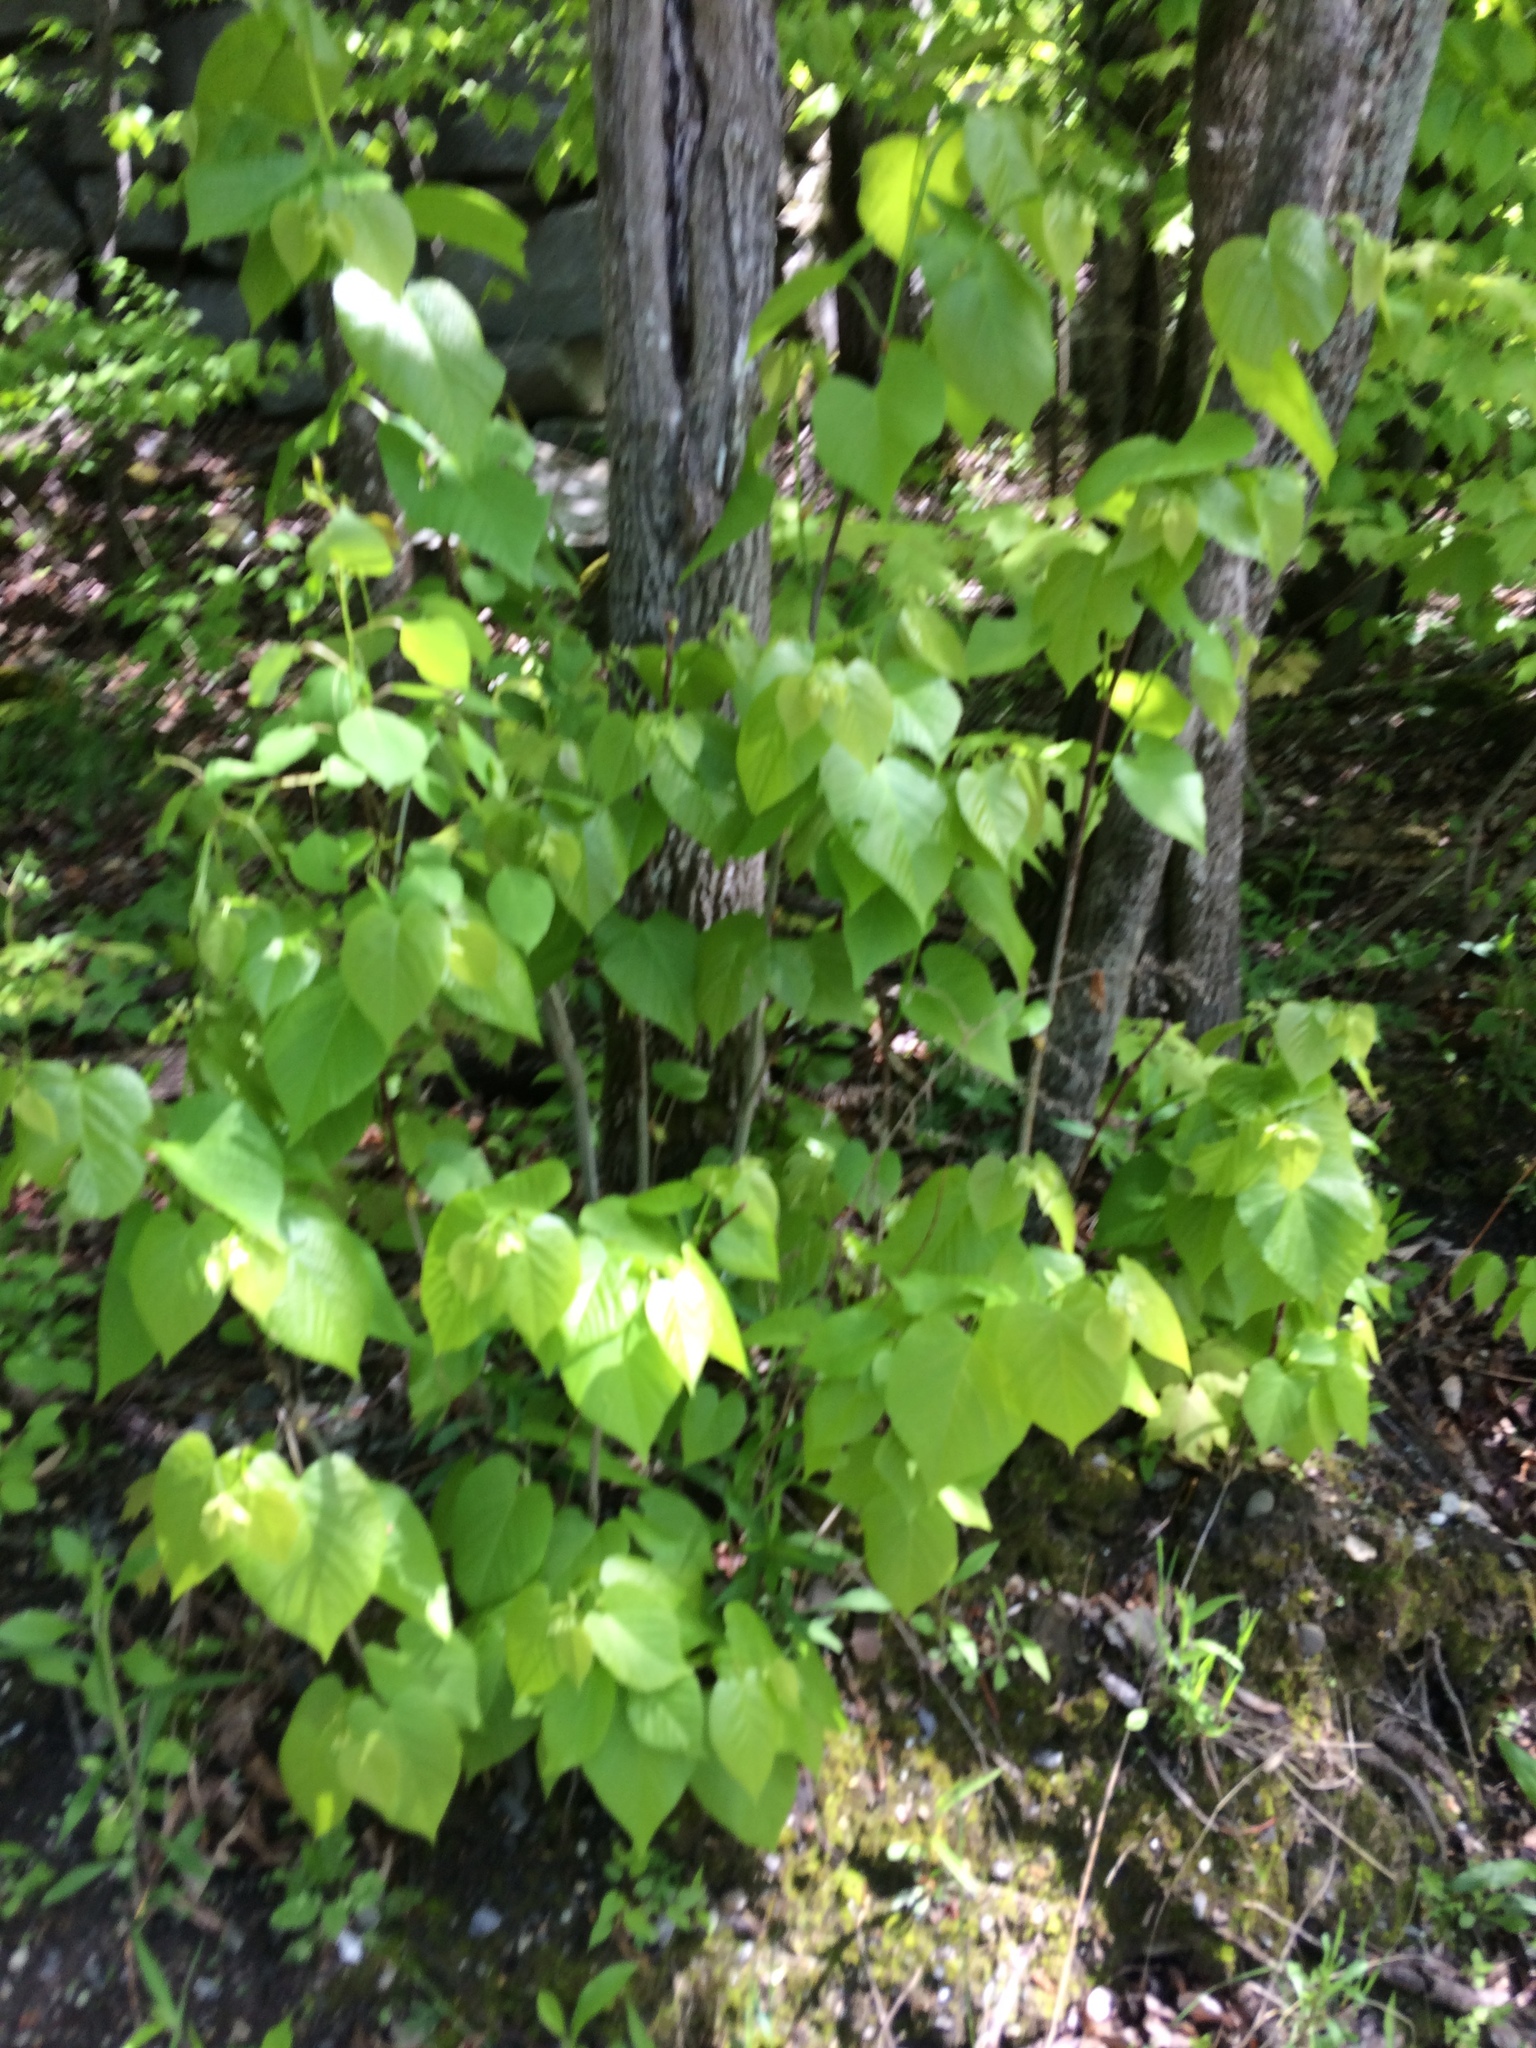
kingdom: Plantae
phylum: Tracheophyta
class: Magnoliopsida
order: Malvales
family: Malvaceae
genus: Tilia
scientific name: Tilia americana
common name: Basswood
